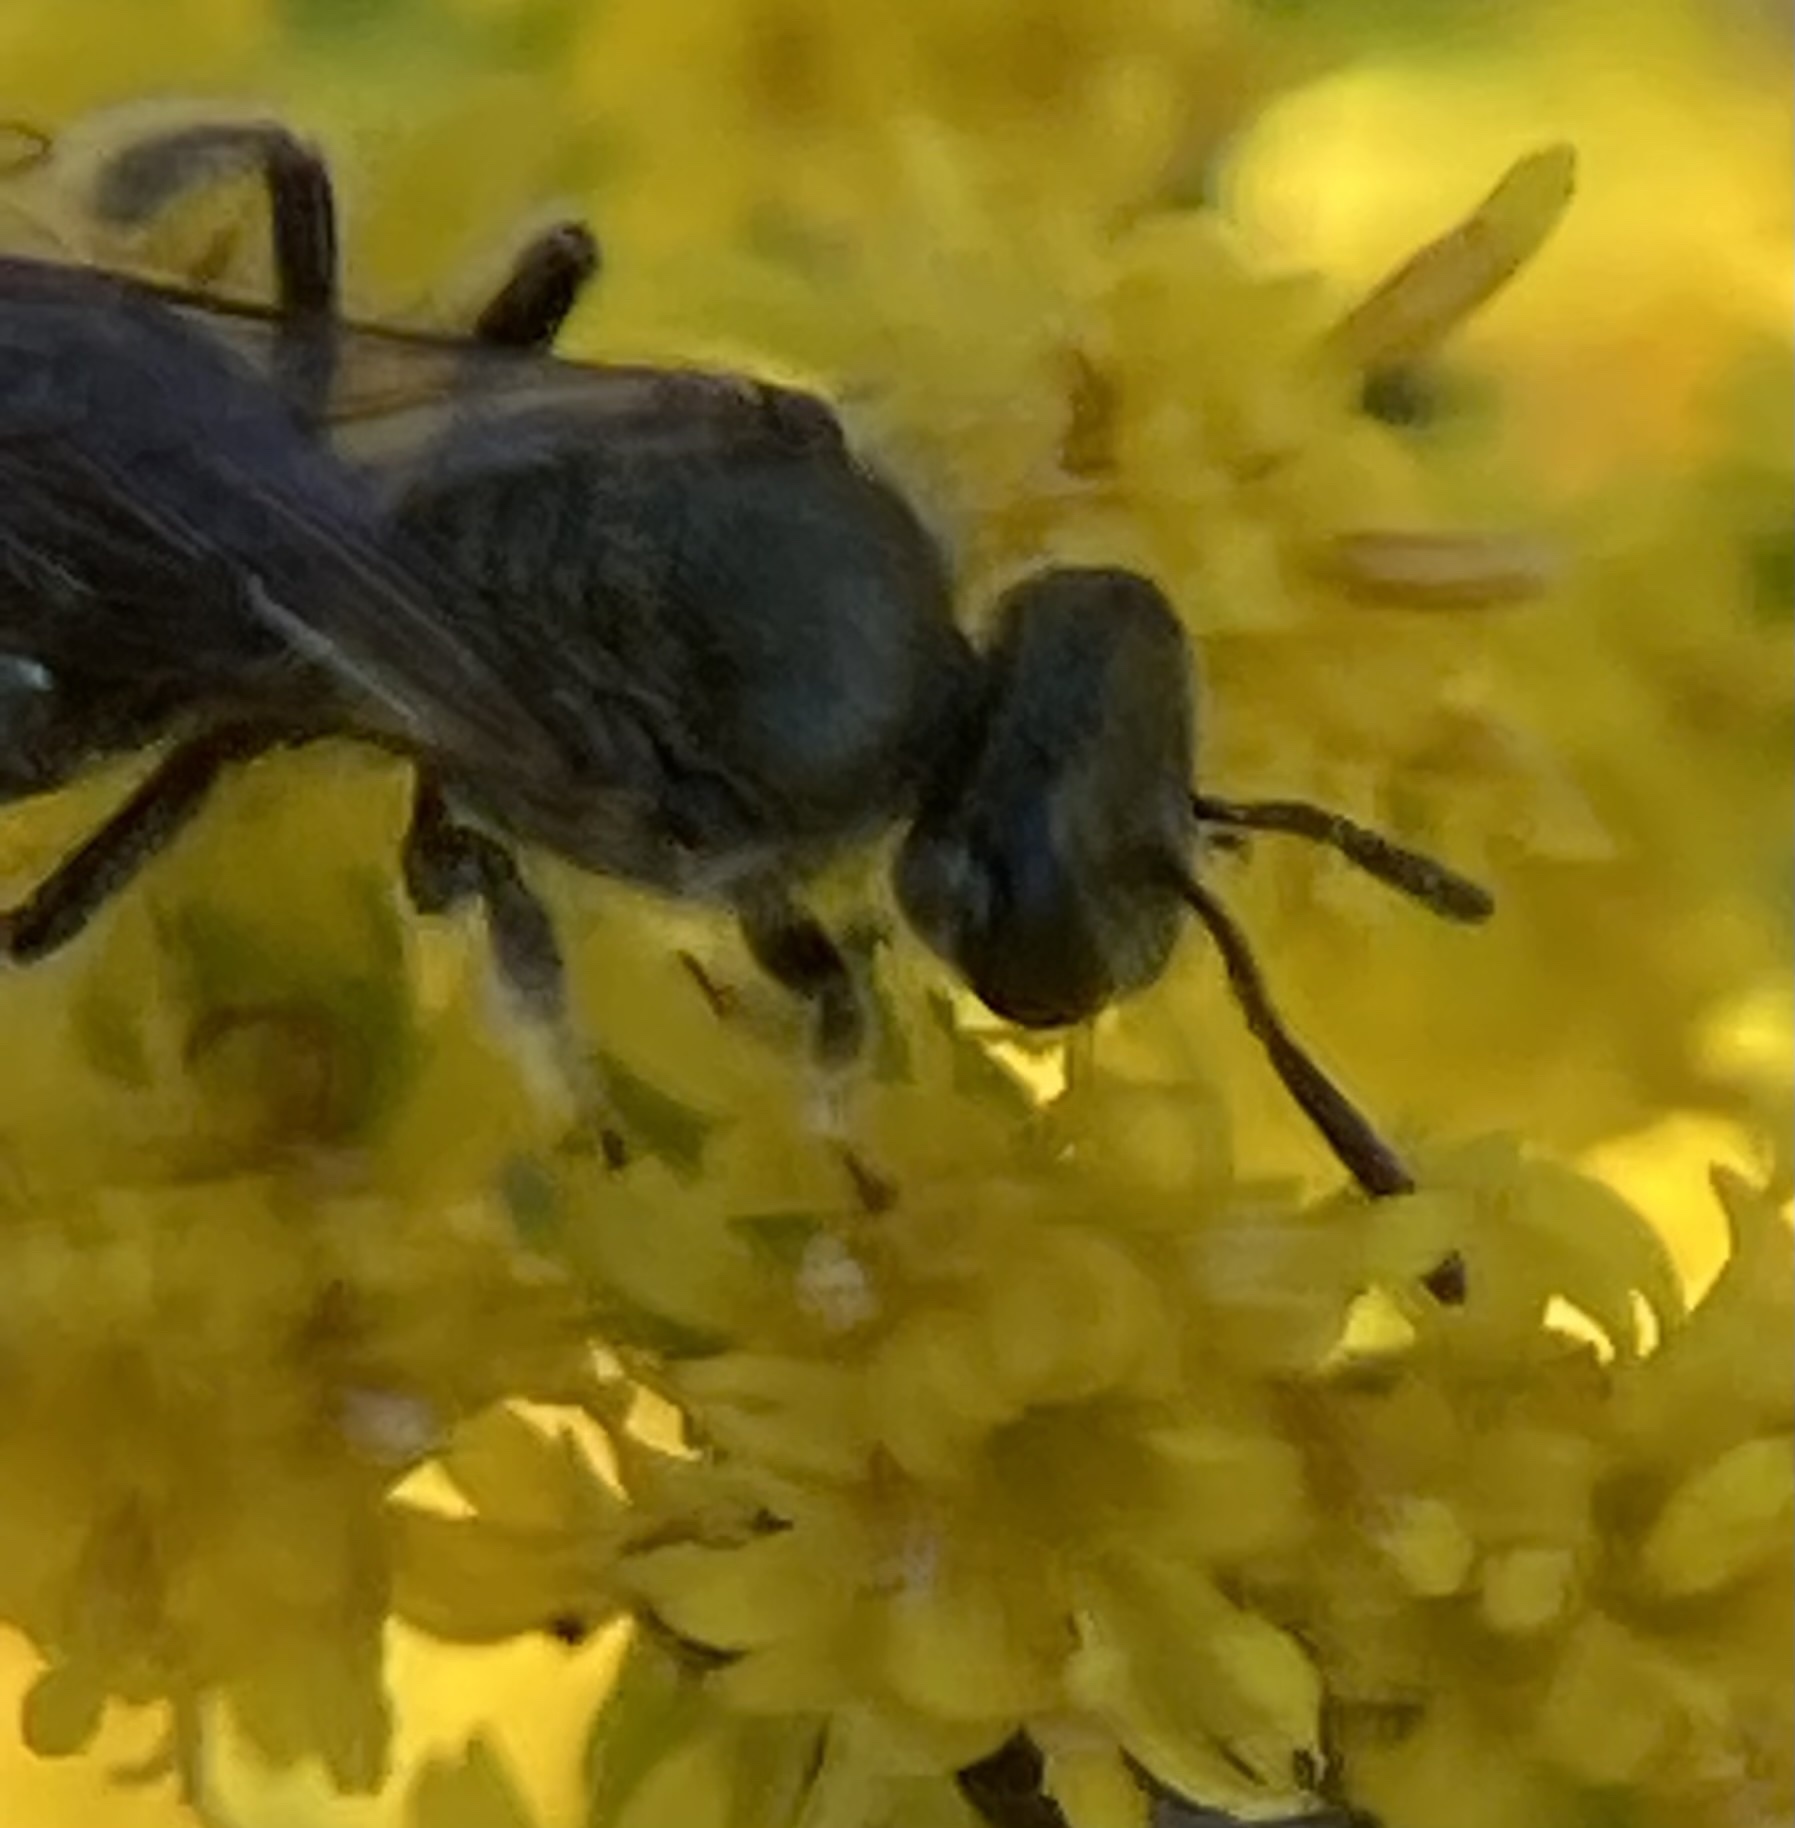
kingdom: Animalia
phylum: Arthropoda
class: Insecta
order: Hymenoptera
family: Halictidae
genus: Dialictus
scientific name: Dialictus
